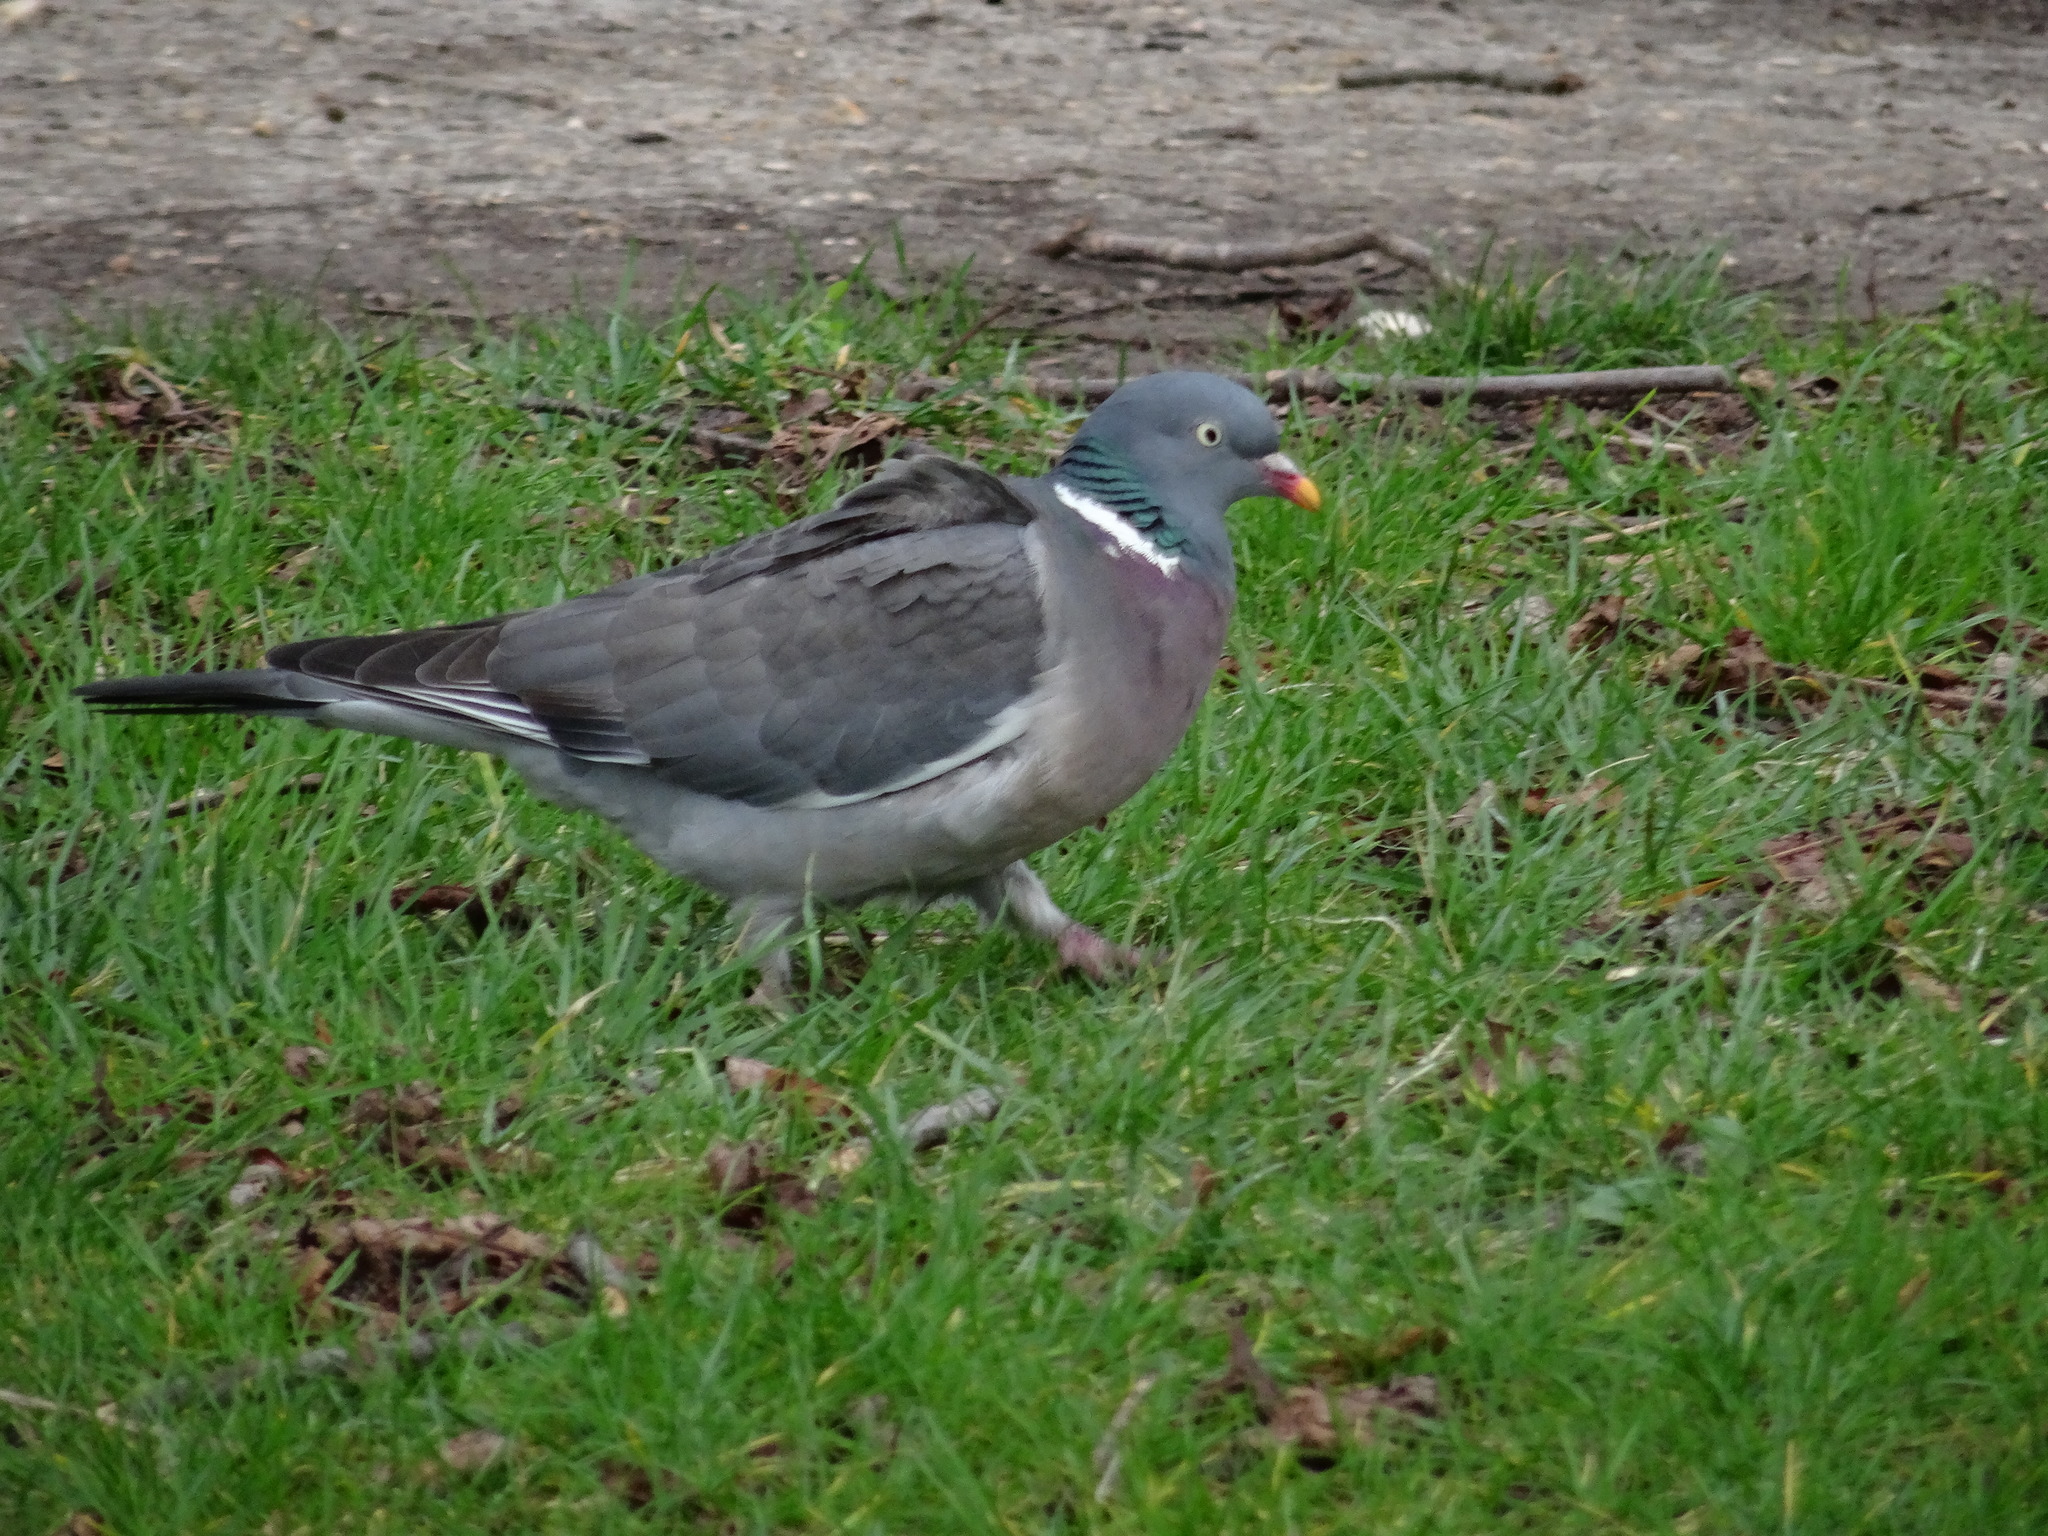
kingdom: Animalia
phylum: Chordata
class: Aves
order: Columbiformes
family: Columbidae
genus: Columba
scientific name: Columba palumbus
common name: Common wood pigeon
